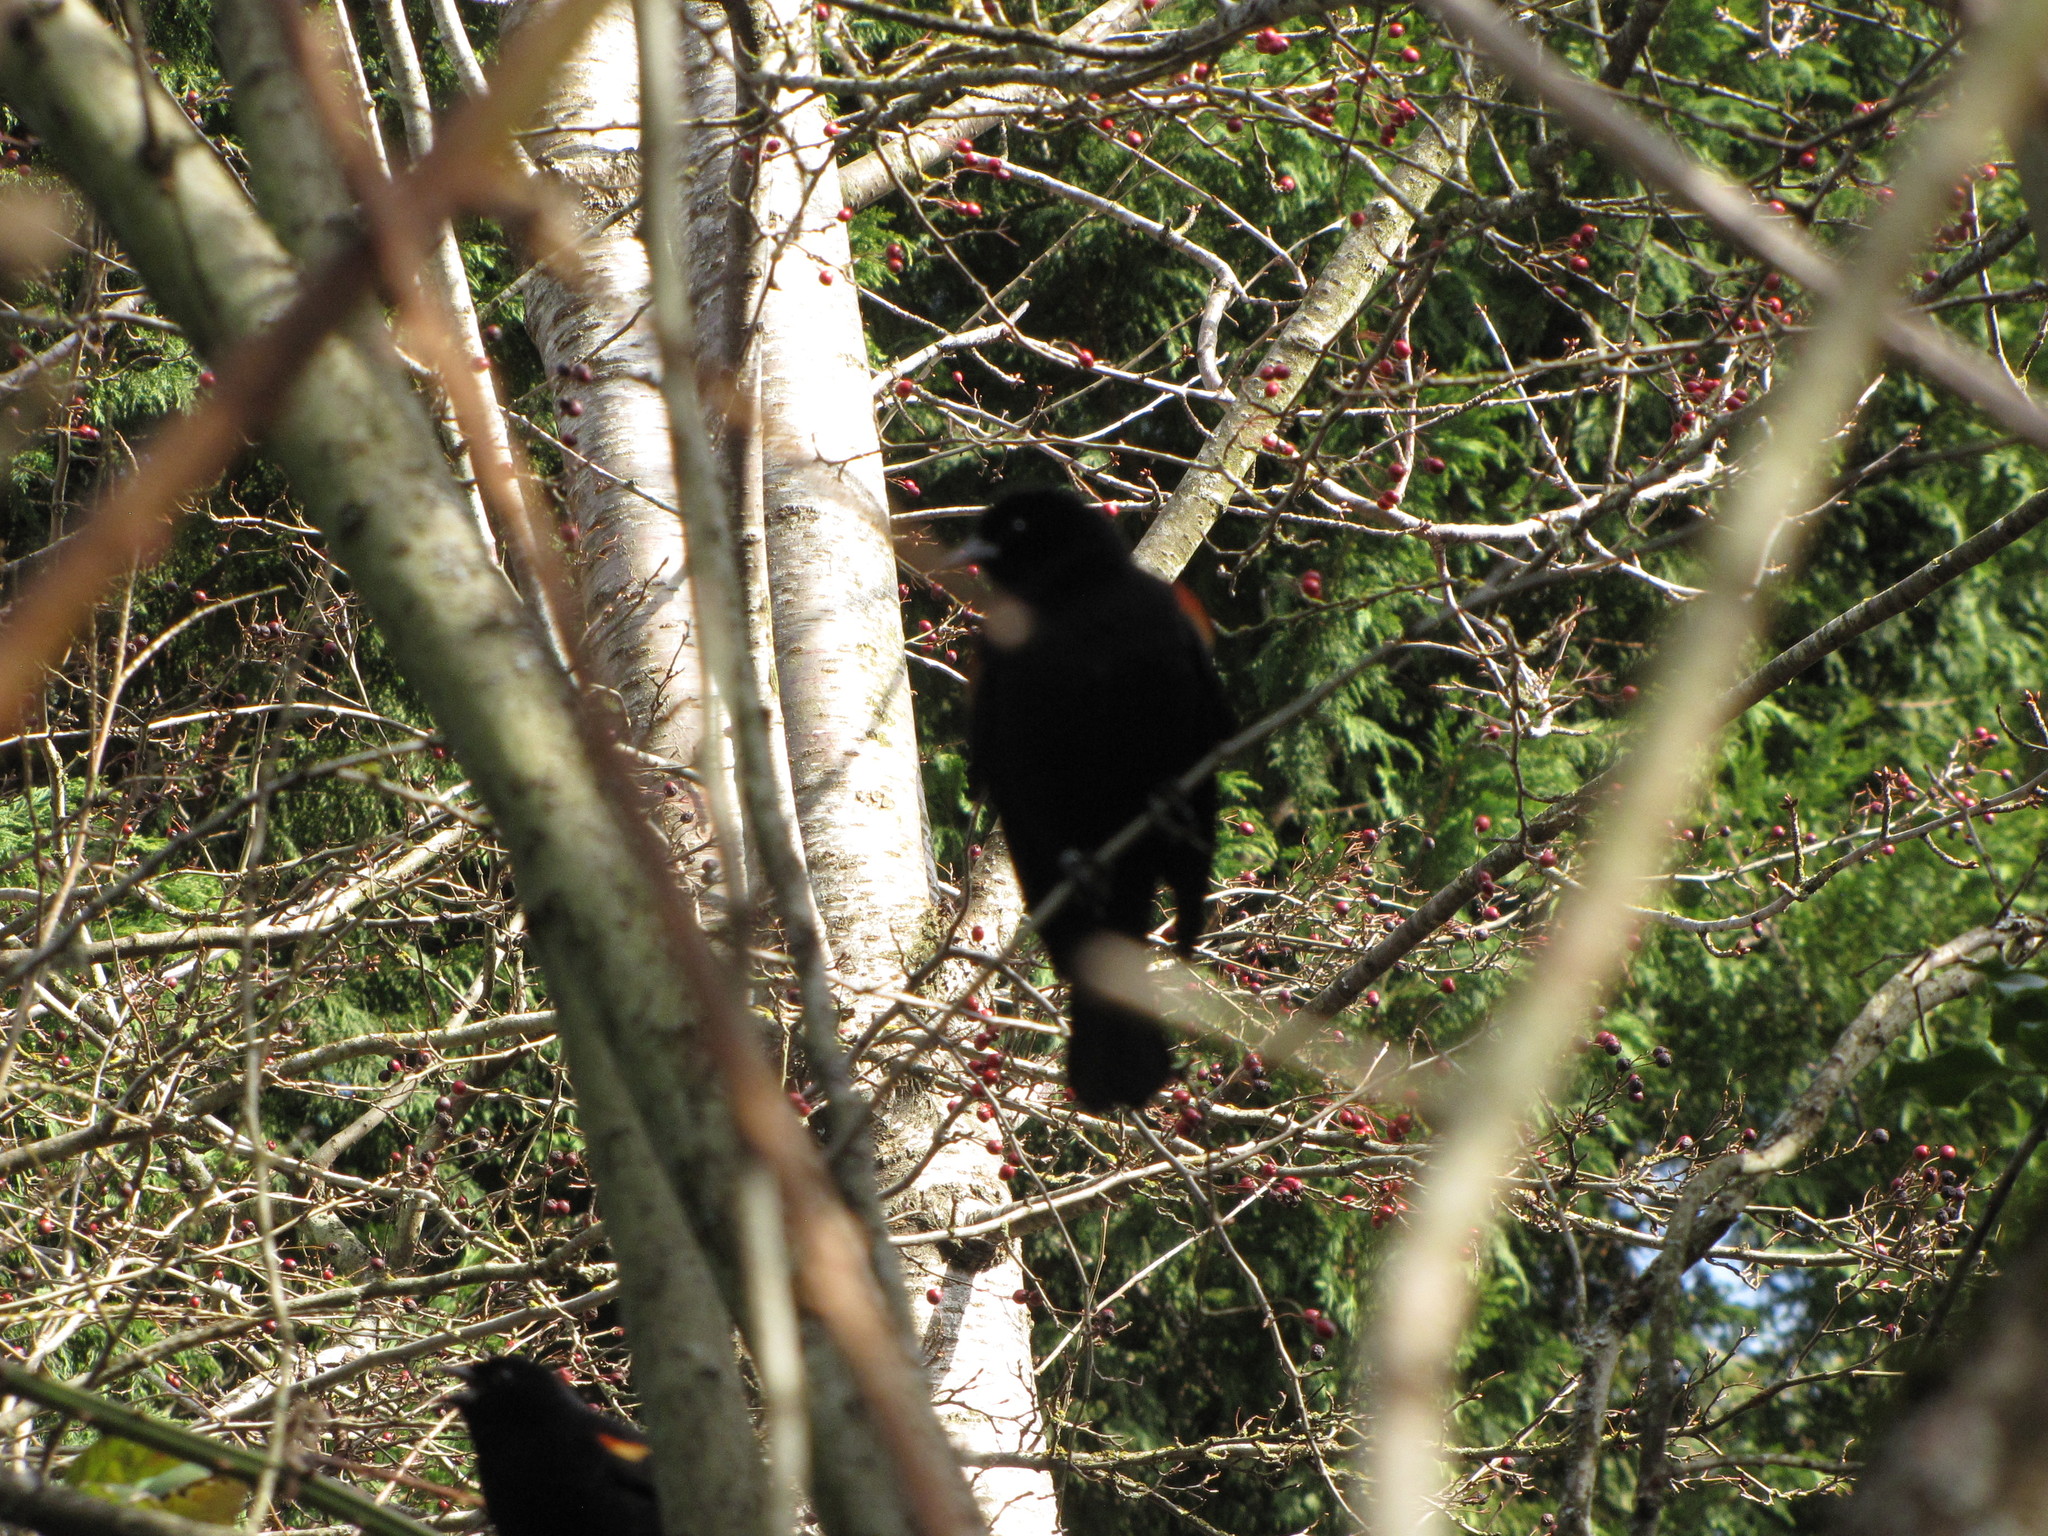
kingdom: Animalia
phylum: Chordata
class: Aves
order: Passeriformes
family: Icteridae
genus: Agelaius
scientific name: Agelaius phoeniceus
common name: Red-winged blackbird
